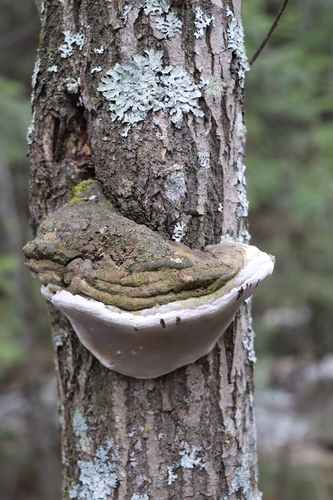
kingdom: Fungi
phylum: Basidiomycota
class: Agaricomycetes
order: Hymenochaetales
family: Hymenochaetaceae
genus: Phellinus
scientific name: Phellinus igniarius
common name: Willow bracket
